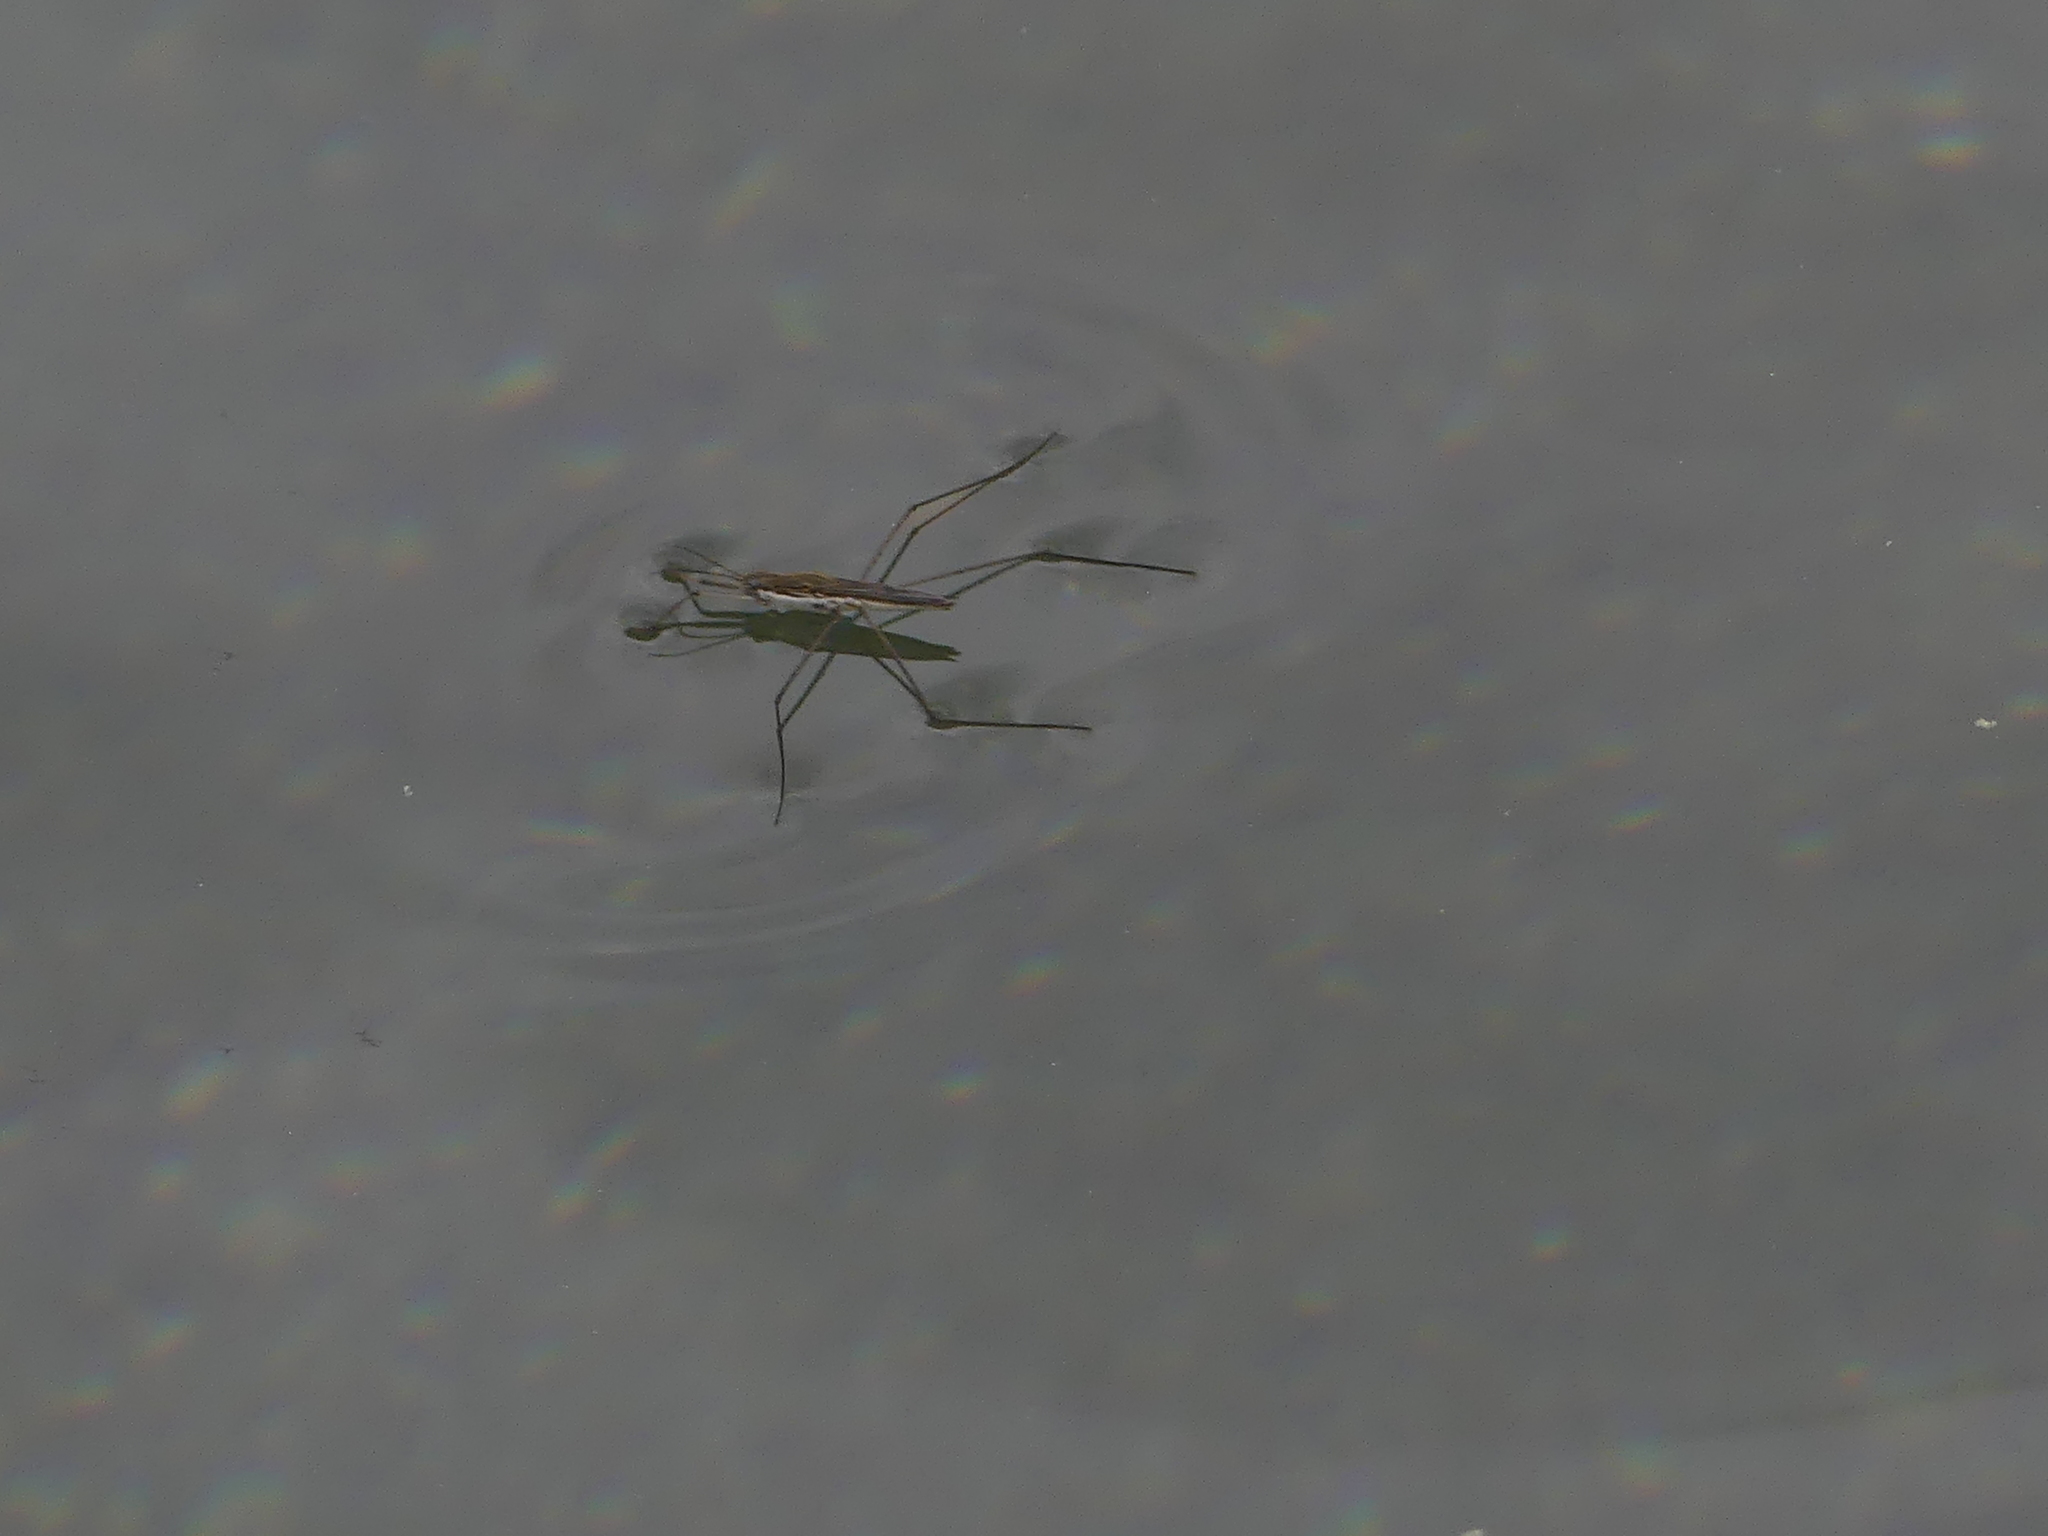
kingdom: Animalia
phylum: Arthropoda
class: Insecta
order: Hemiptera
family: Gerridae
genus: Aquarius
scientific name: Aquarius paludum
